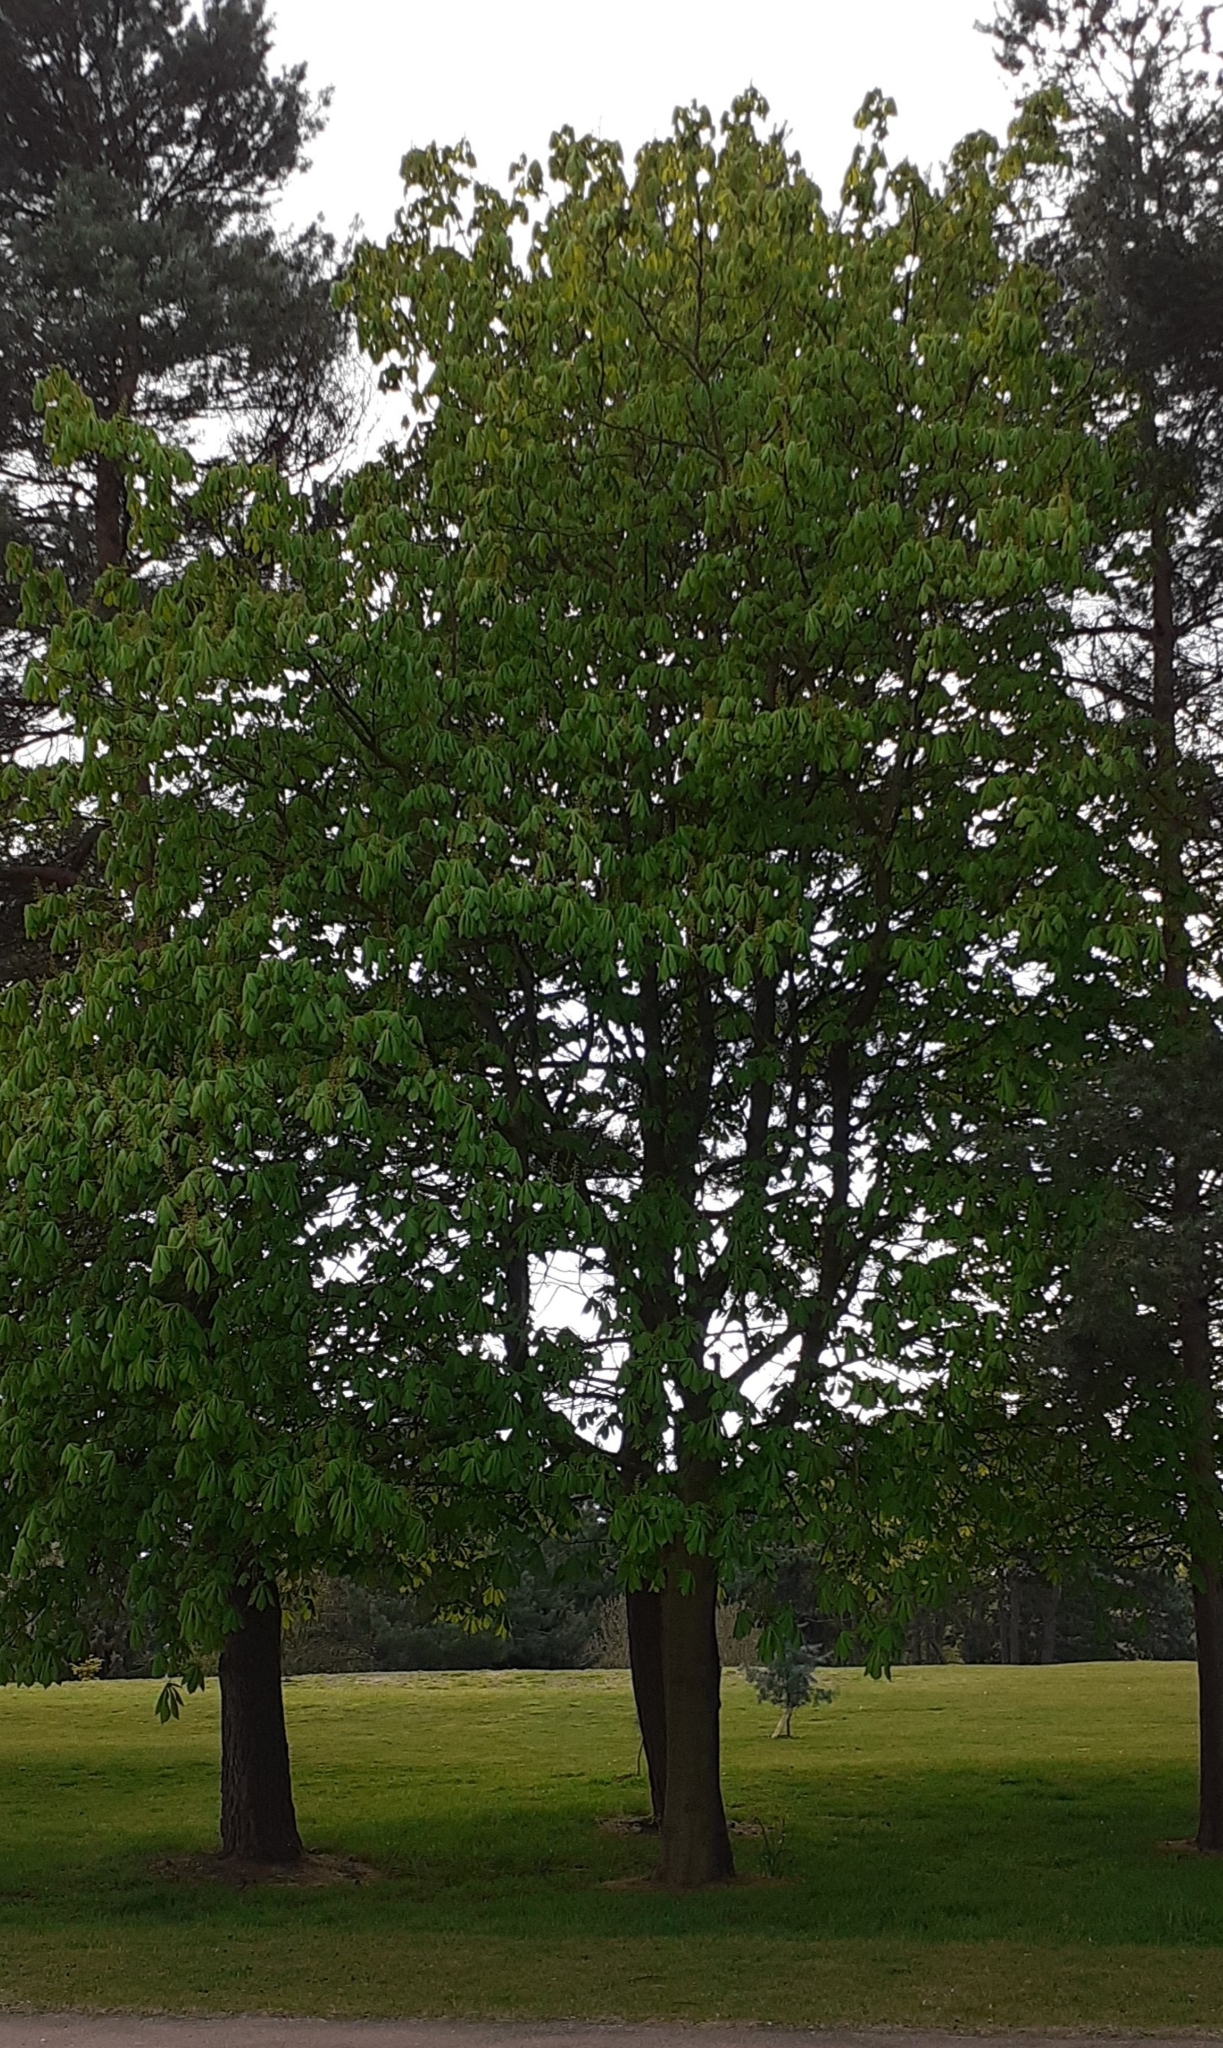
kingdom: Plantae
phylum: Tracheophyta
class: Magnoliopsida
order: Sapindales
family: Sapindaceae
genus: Aesculus
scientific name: Aesculus hippocastanum
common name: Horse-chestnut
